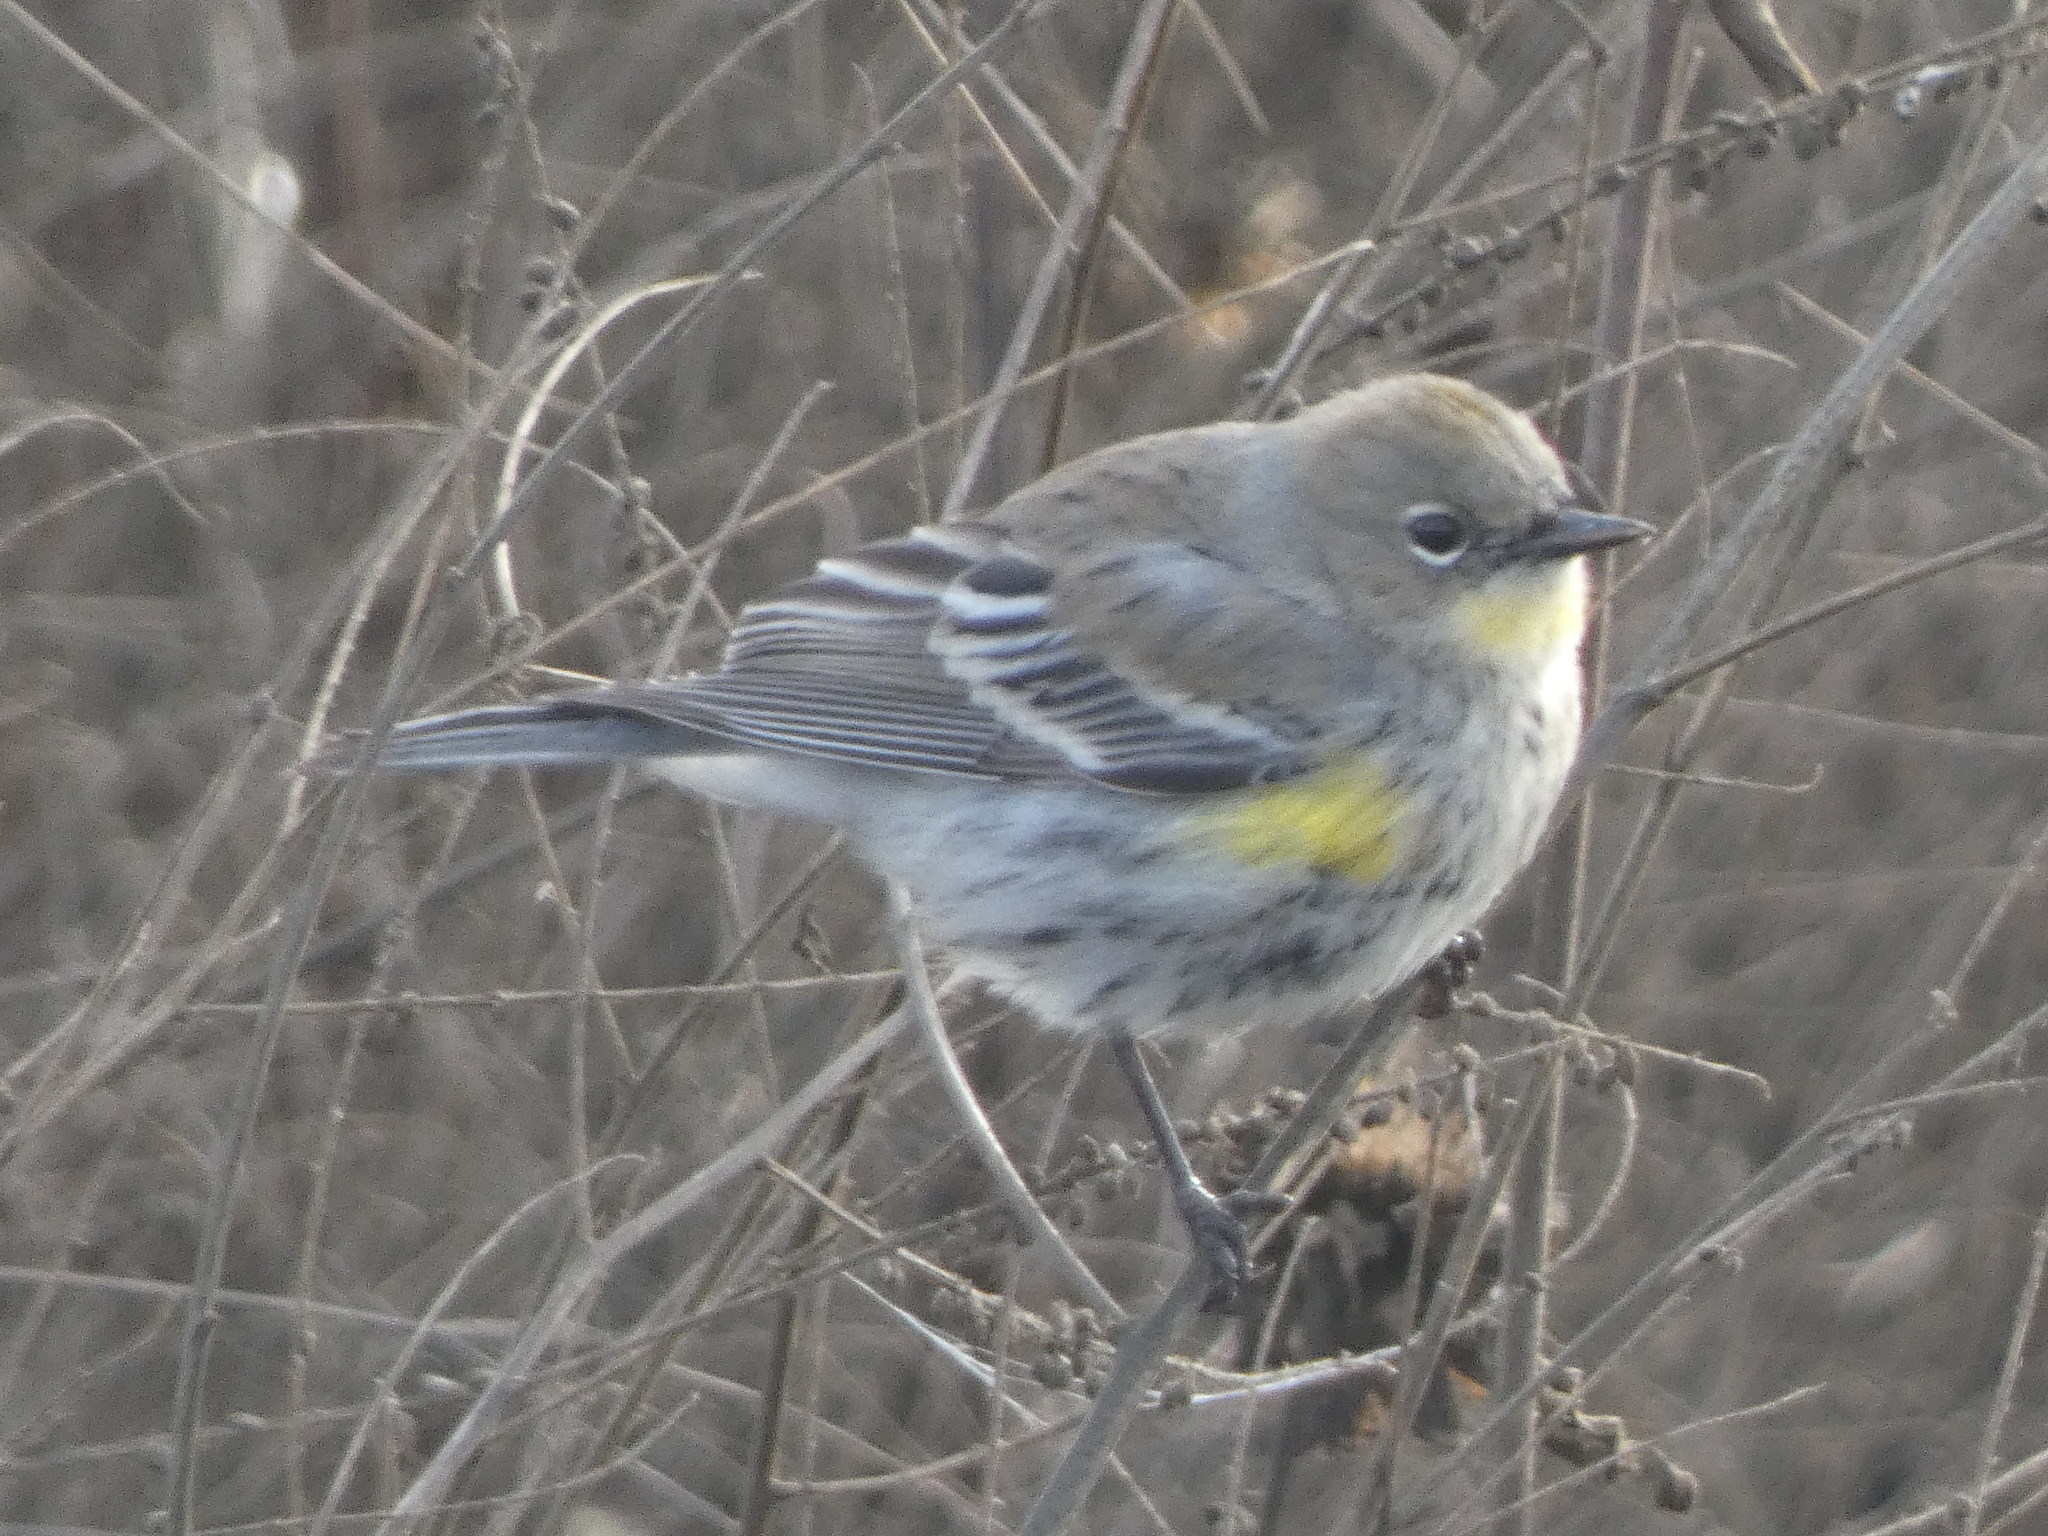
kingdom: Animalia
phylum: Chordata
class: Aves
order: Passeriformes
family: Parulidae
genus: Setophaga
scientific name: Setophaga coronata
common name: Myrtle warbler
